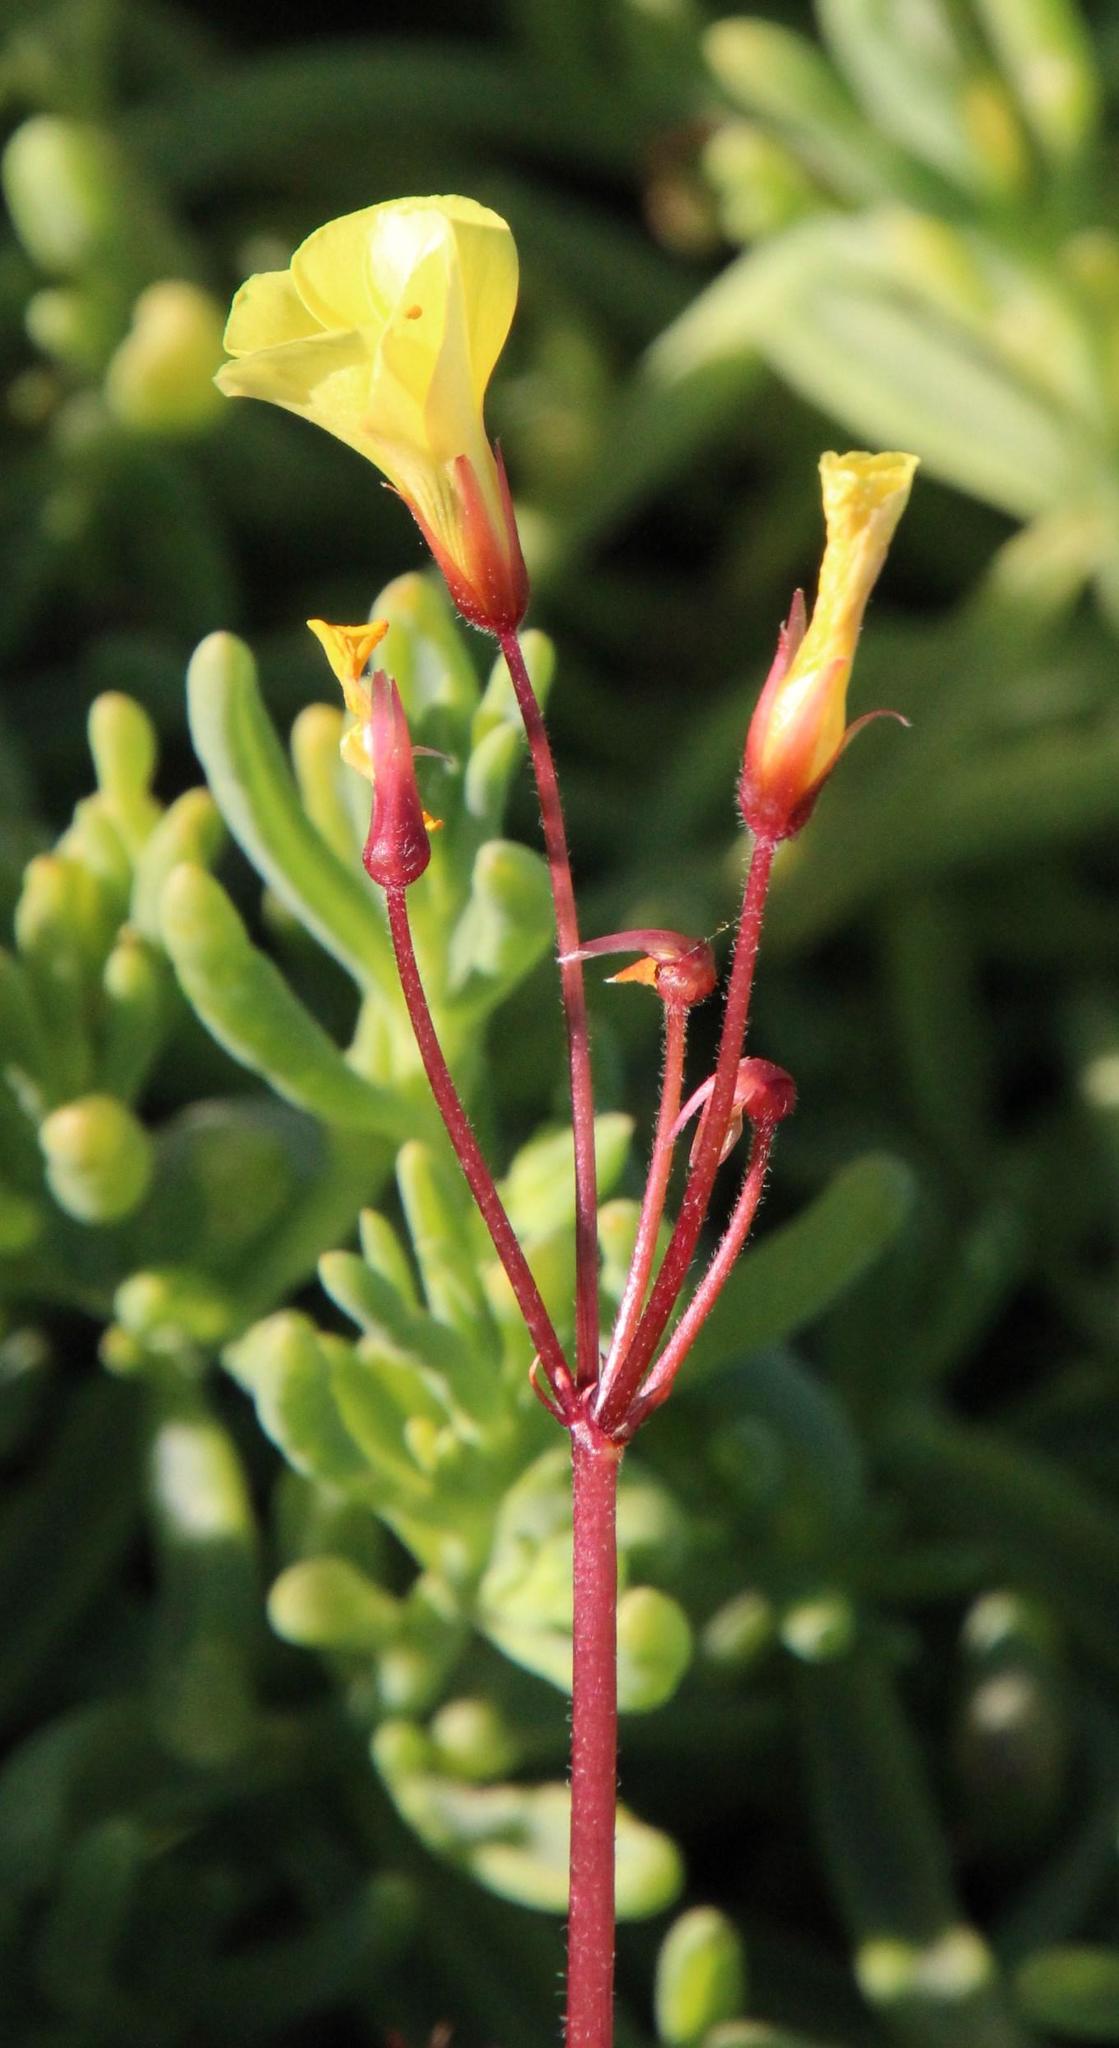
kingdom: Plantae
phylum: Tracheophyta
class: Magnoliopsida
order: Oxalidales
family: Oxalidaceae
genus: Oxalis
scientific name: Oxalis compressa
